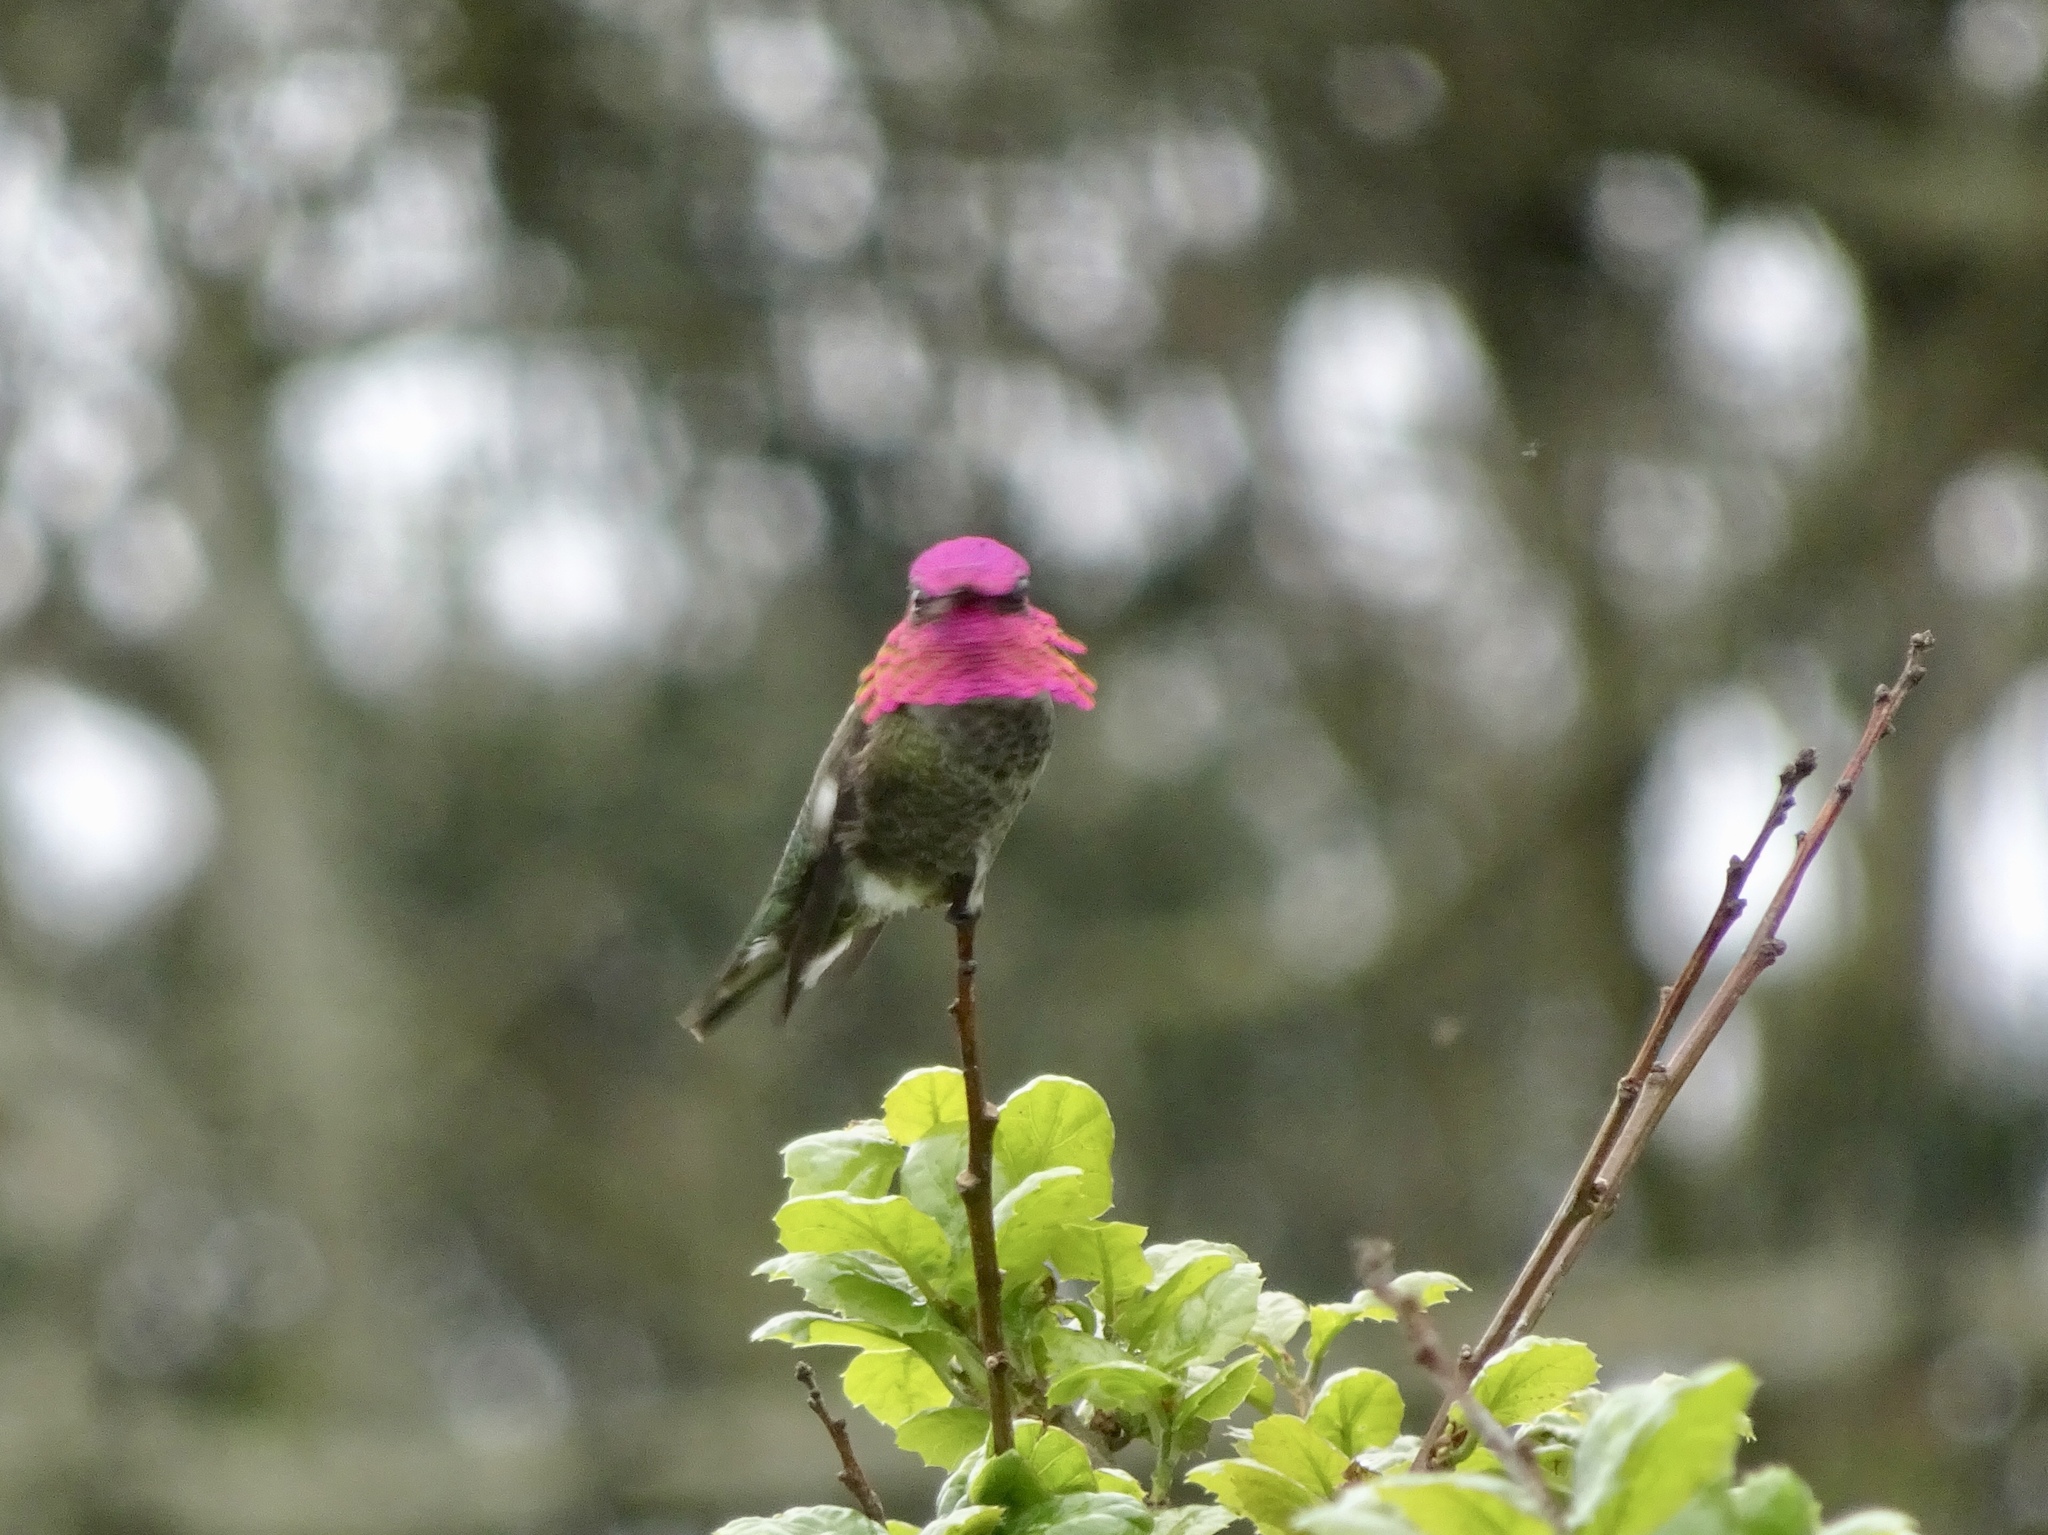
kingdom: Animalia
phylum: Chordata
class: Aves
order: Apodiformes
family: Trochilidae
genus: Calypte
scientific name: Calypte anna
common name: Anna's hummingbird
